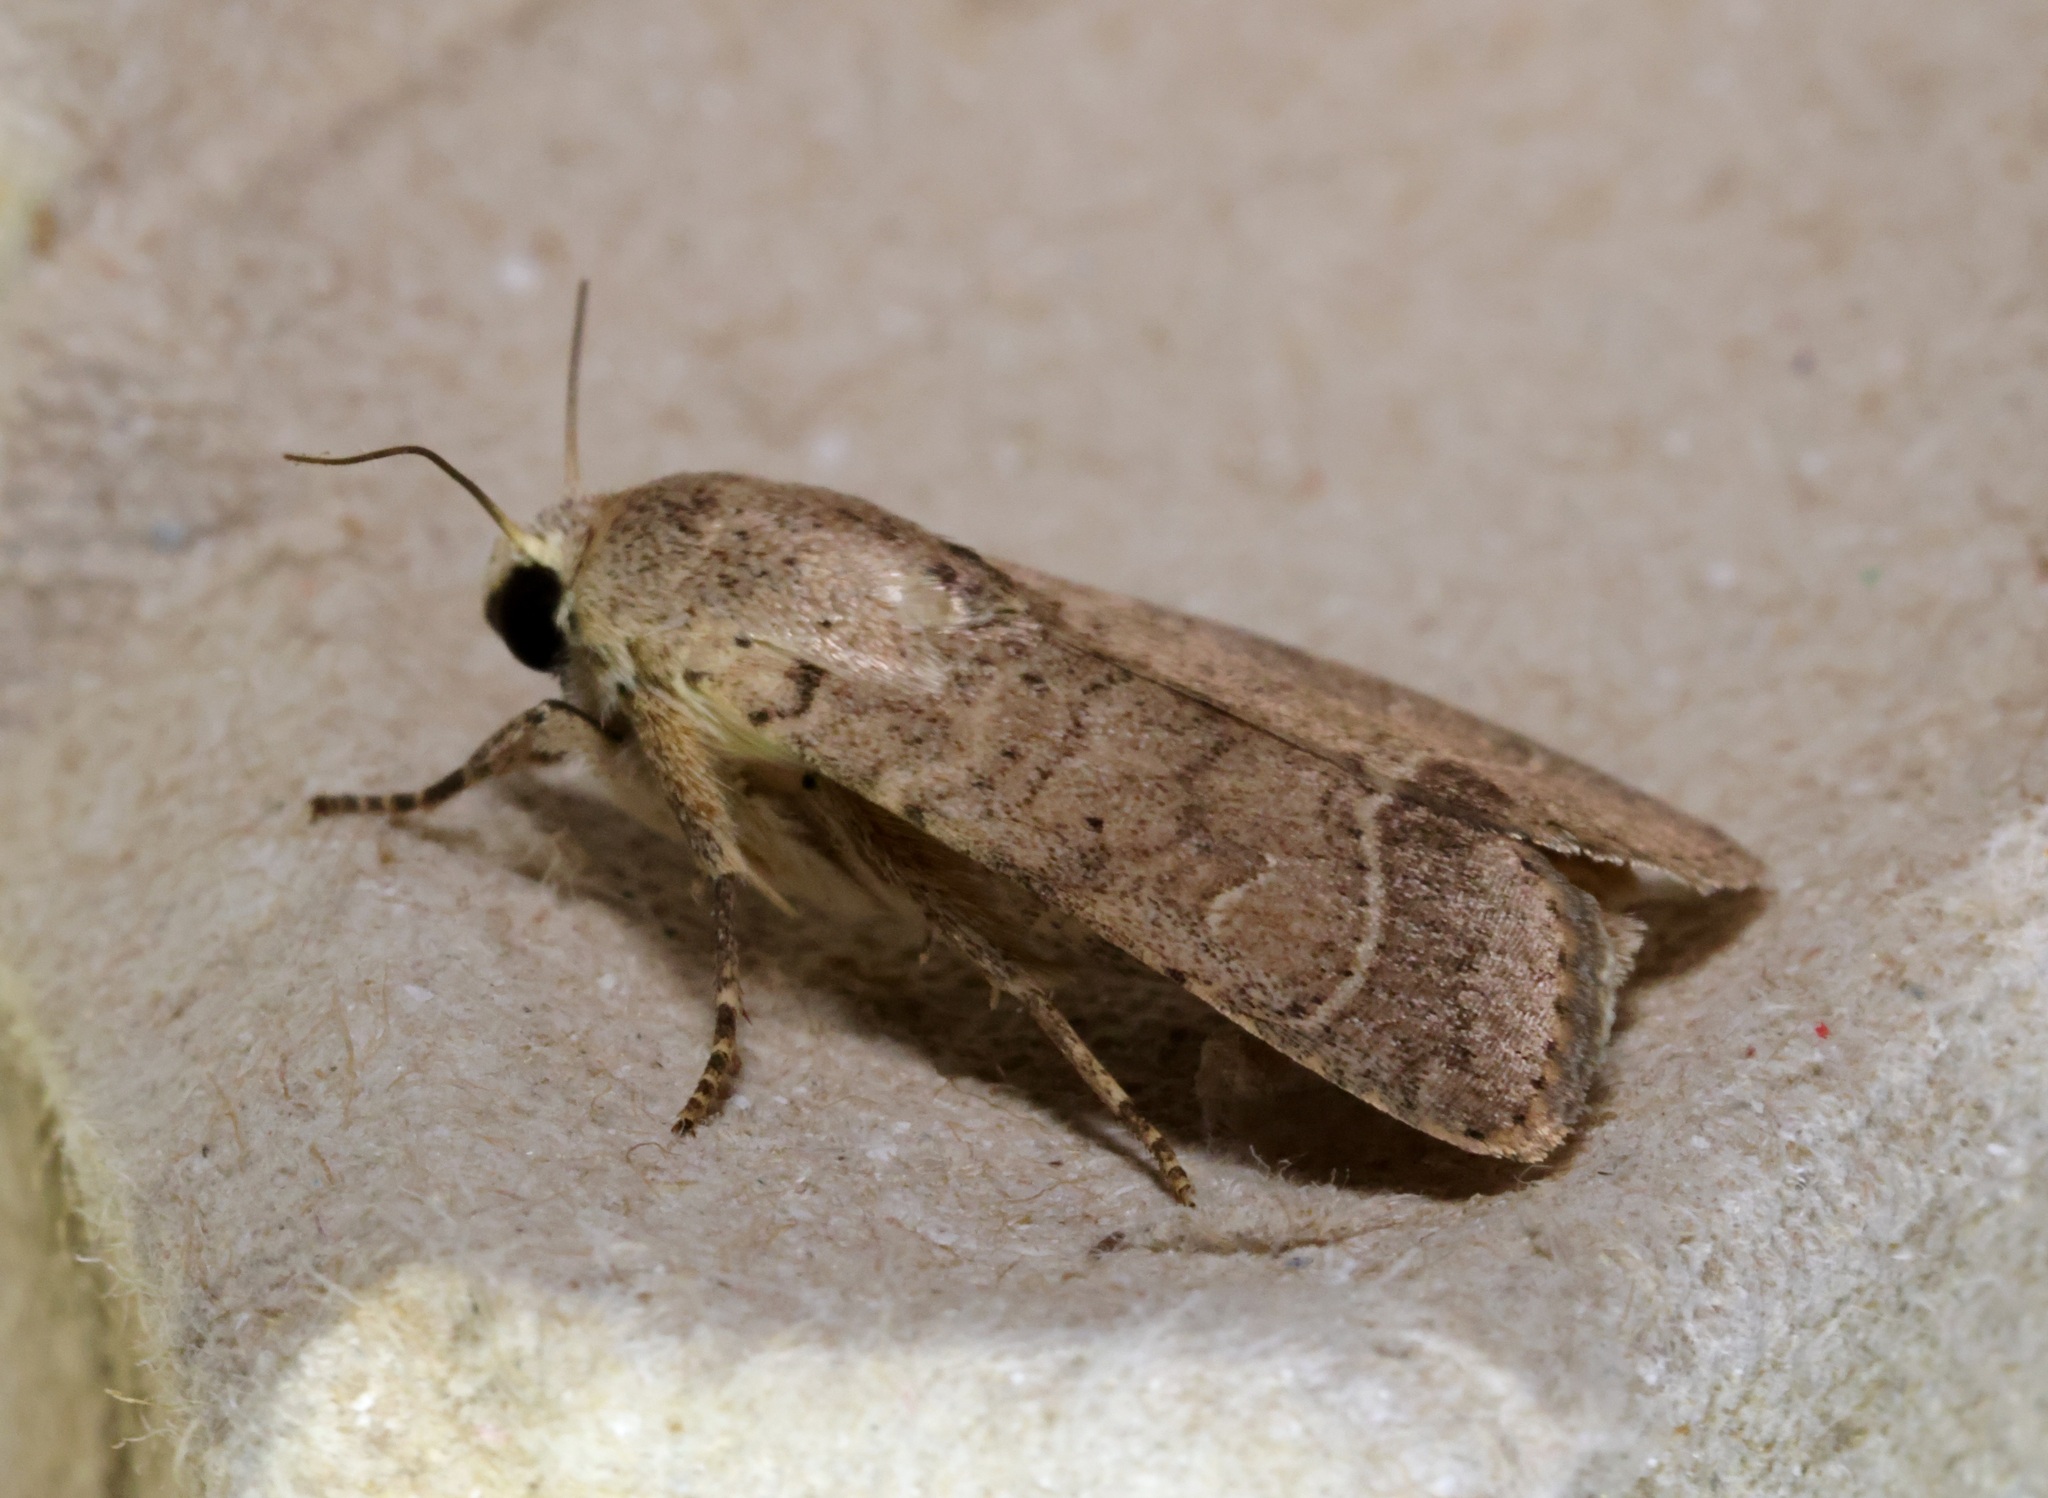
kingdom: Animalia
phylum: Arthropoda
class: Insecta
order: Lepidoptera
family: Noctuidae
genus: Athetis
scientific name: Athetis thoracica
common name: Cutworm
